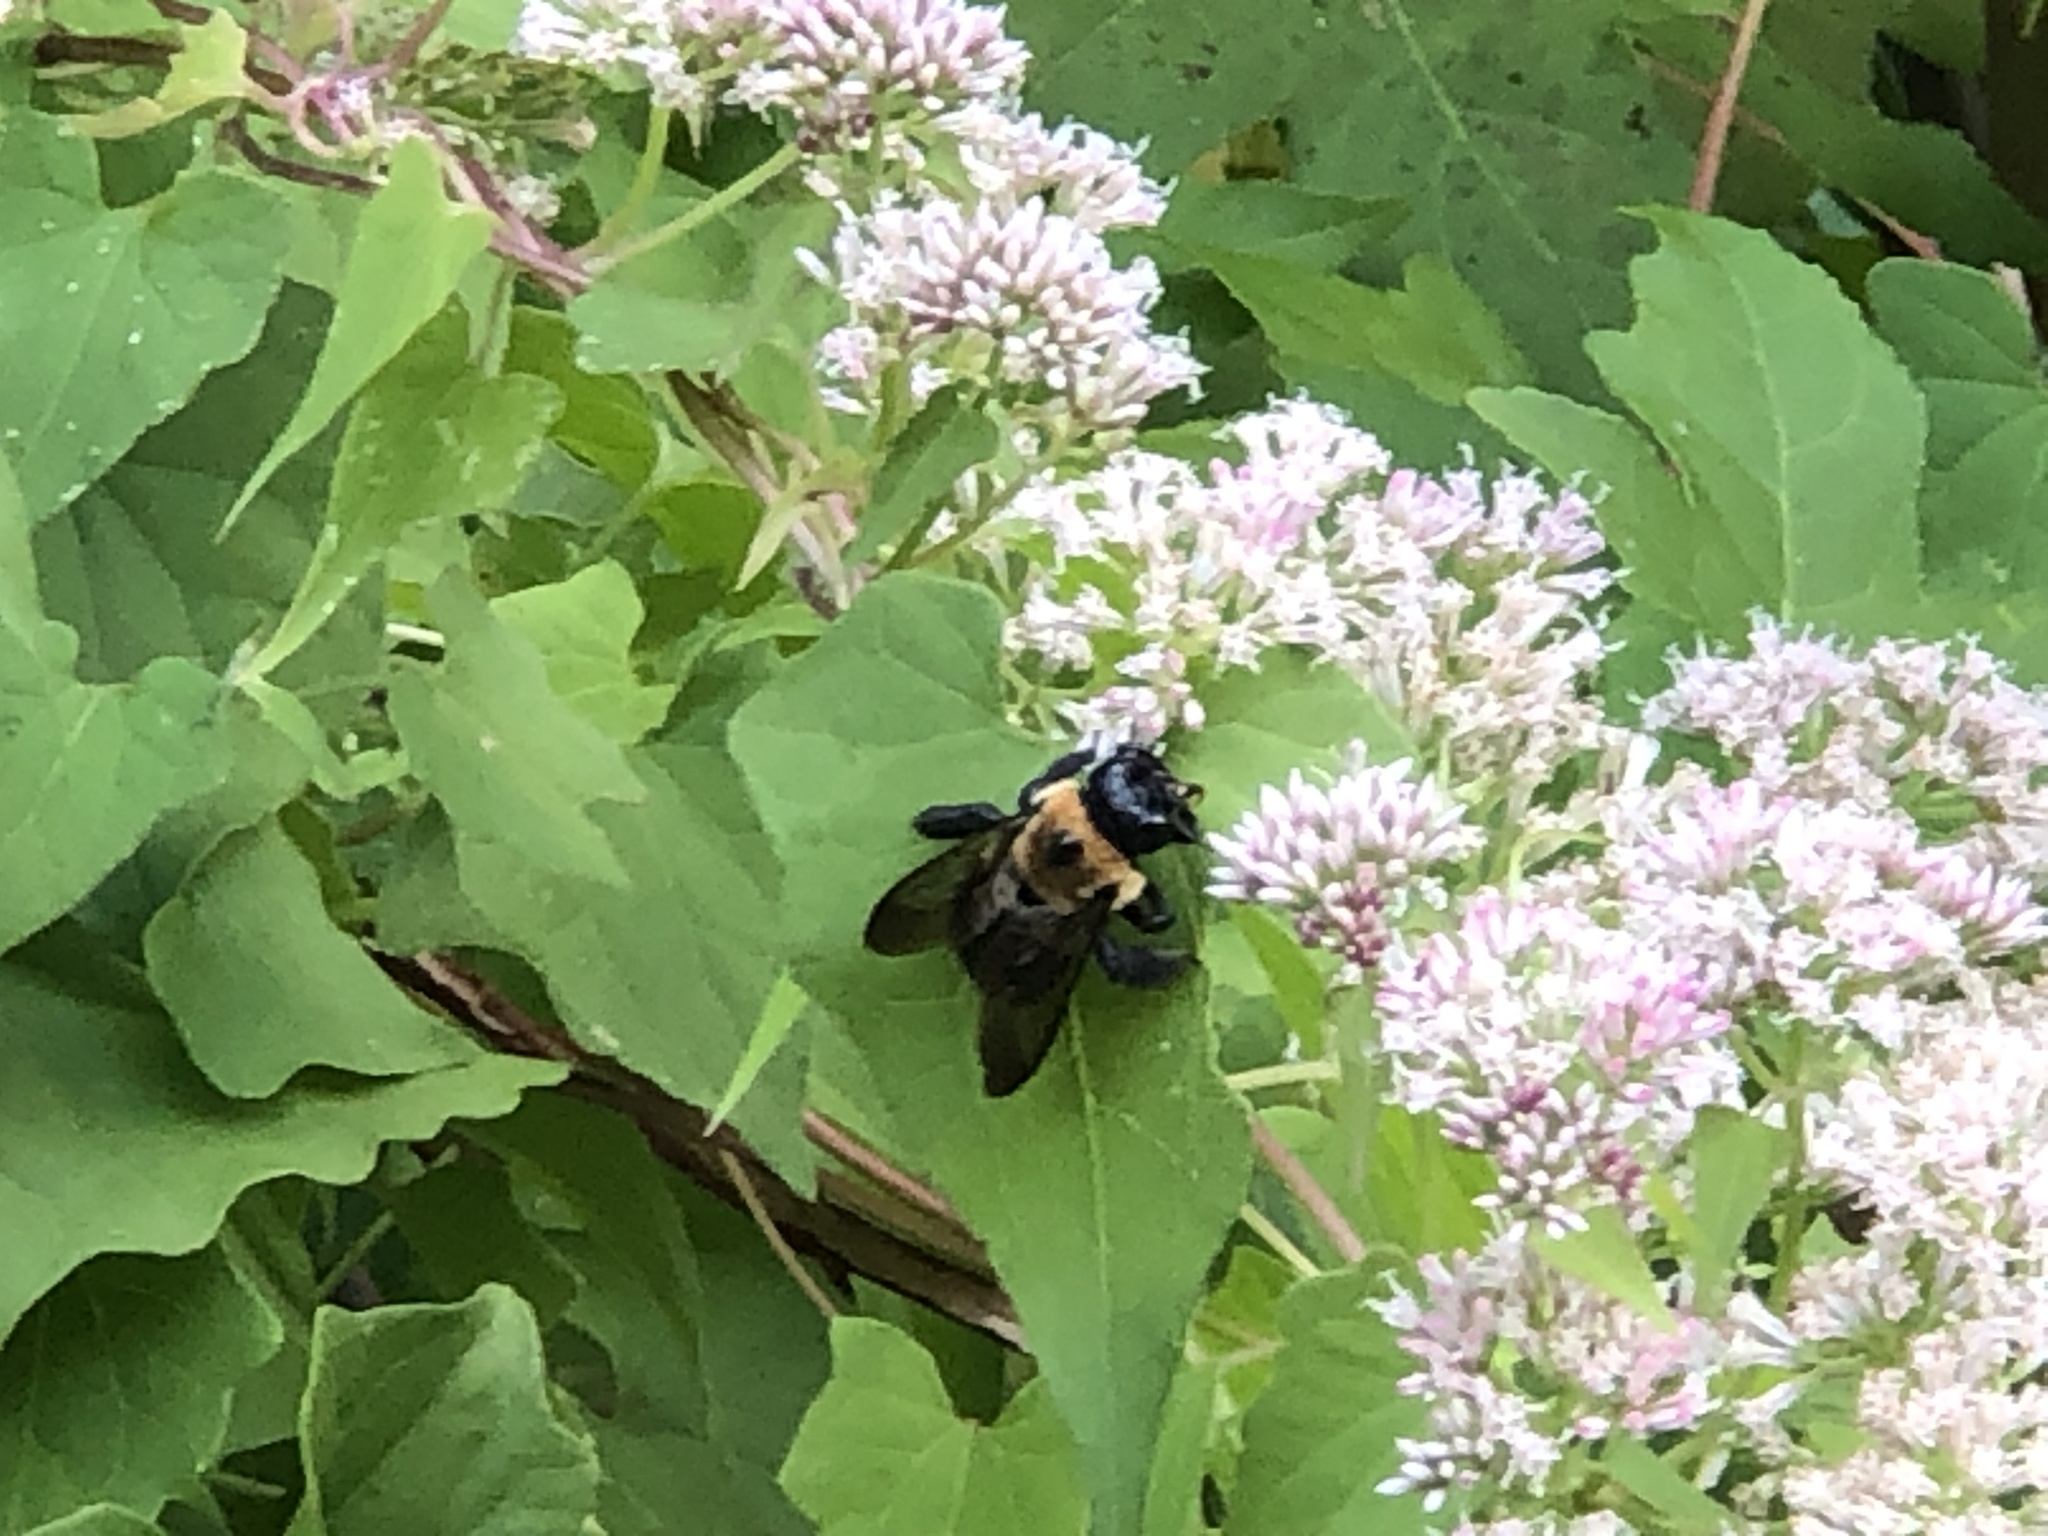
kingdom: Animalia
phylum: Arthropoda
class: Insecta
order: Hymenoptera
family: Apidae
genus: Xylocopa
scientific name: Xylocopa virginica
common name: Carpenter bee
